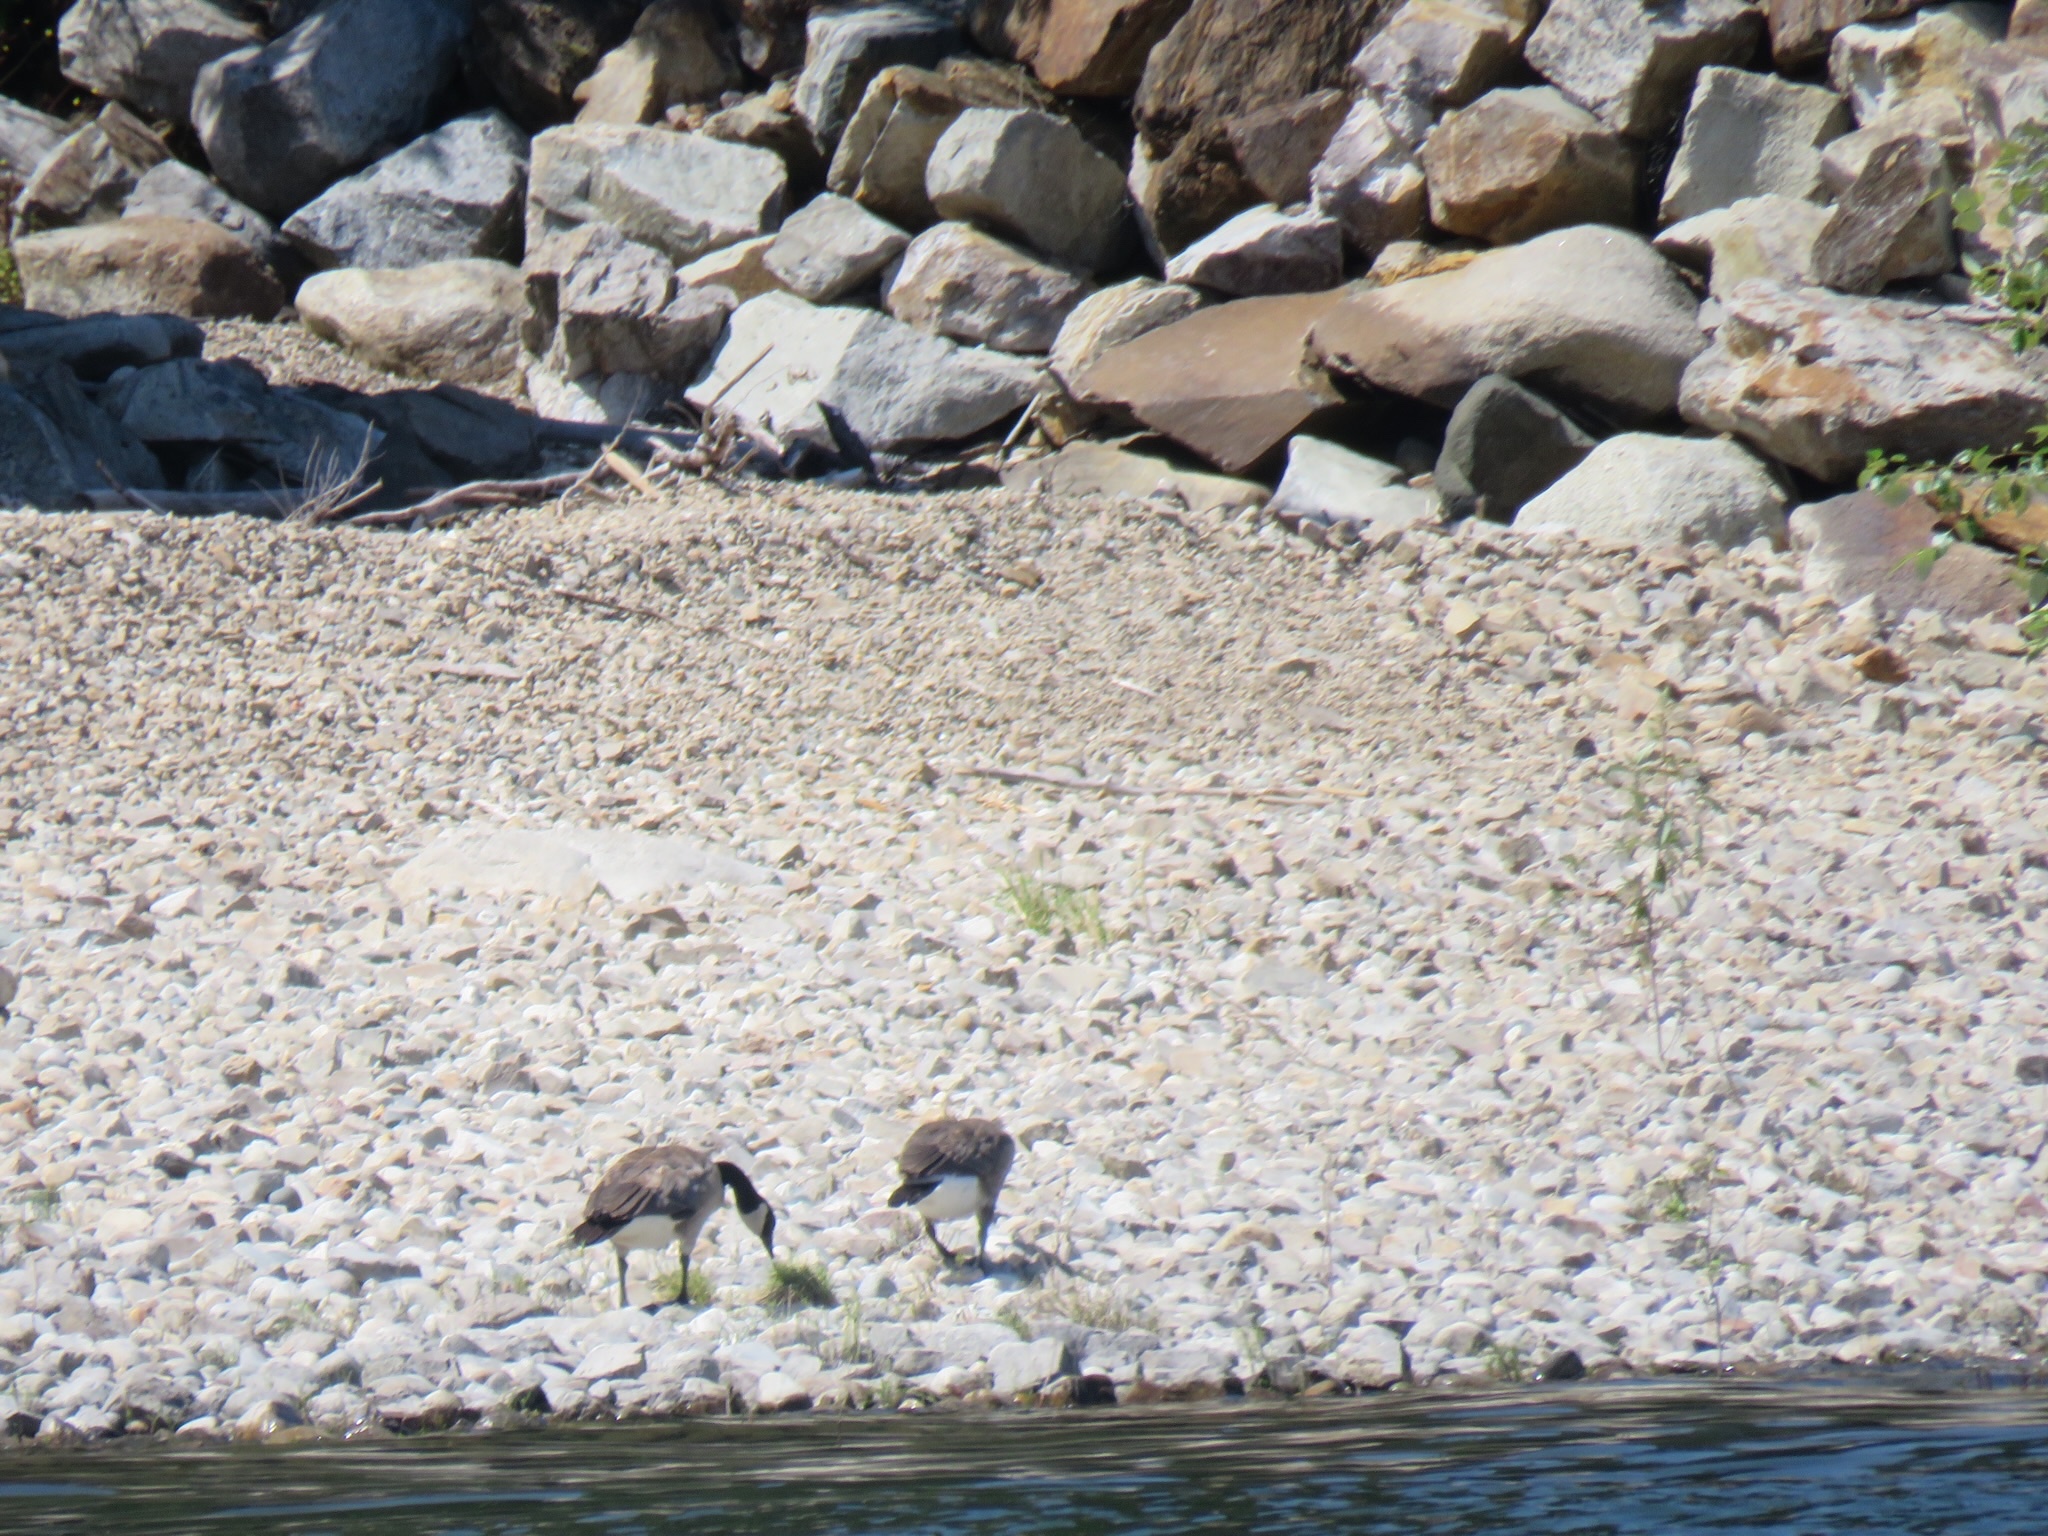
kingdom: Animalia
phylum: Chordata
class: Aves
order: Anseriformes
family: Anatidae
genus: Branta
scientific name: Branta canadensis
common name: Canada goose
